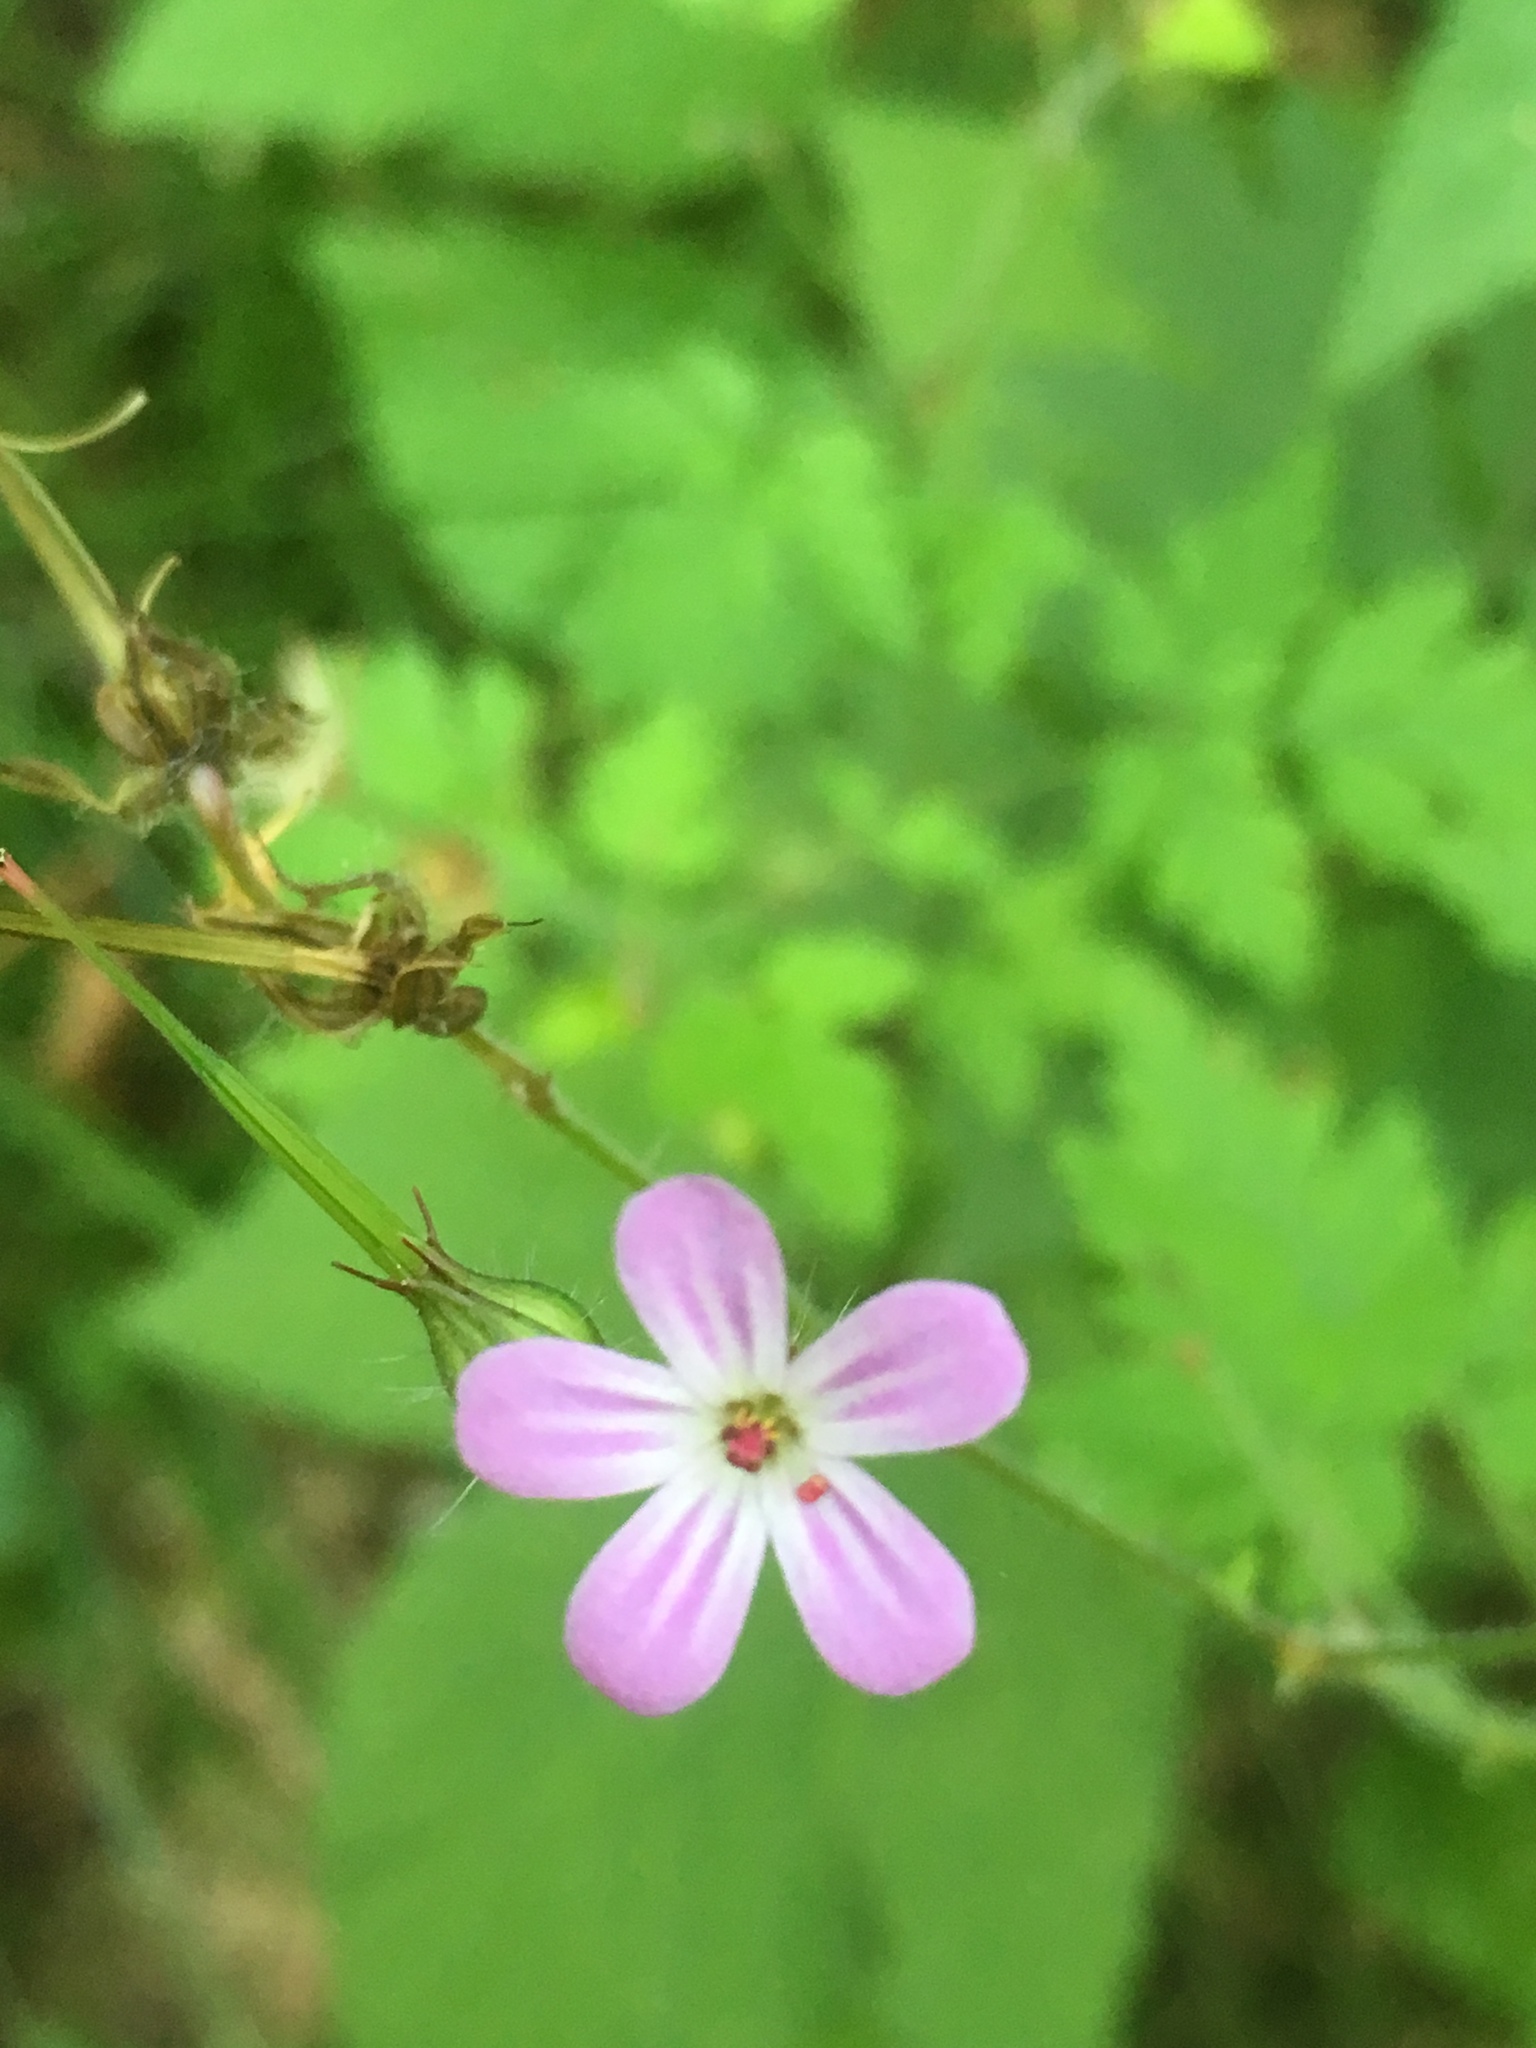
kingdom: Plantae
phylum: Tracheophyta
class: Magnoliopsida
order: Geraniales
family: Geraniaceae
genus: Geranium
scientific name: Geranium robertianum
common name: Herb-robert
